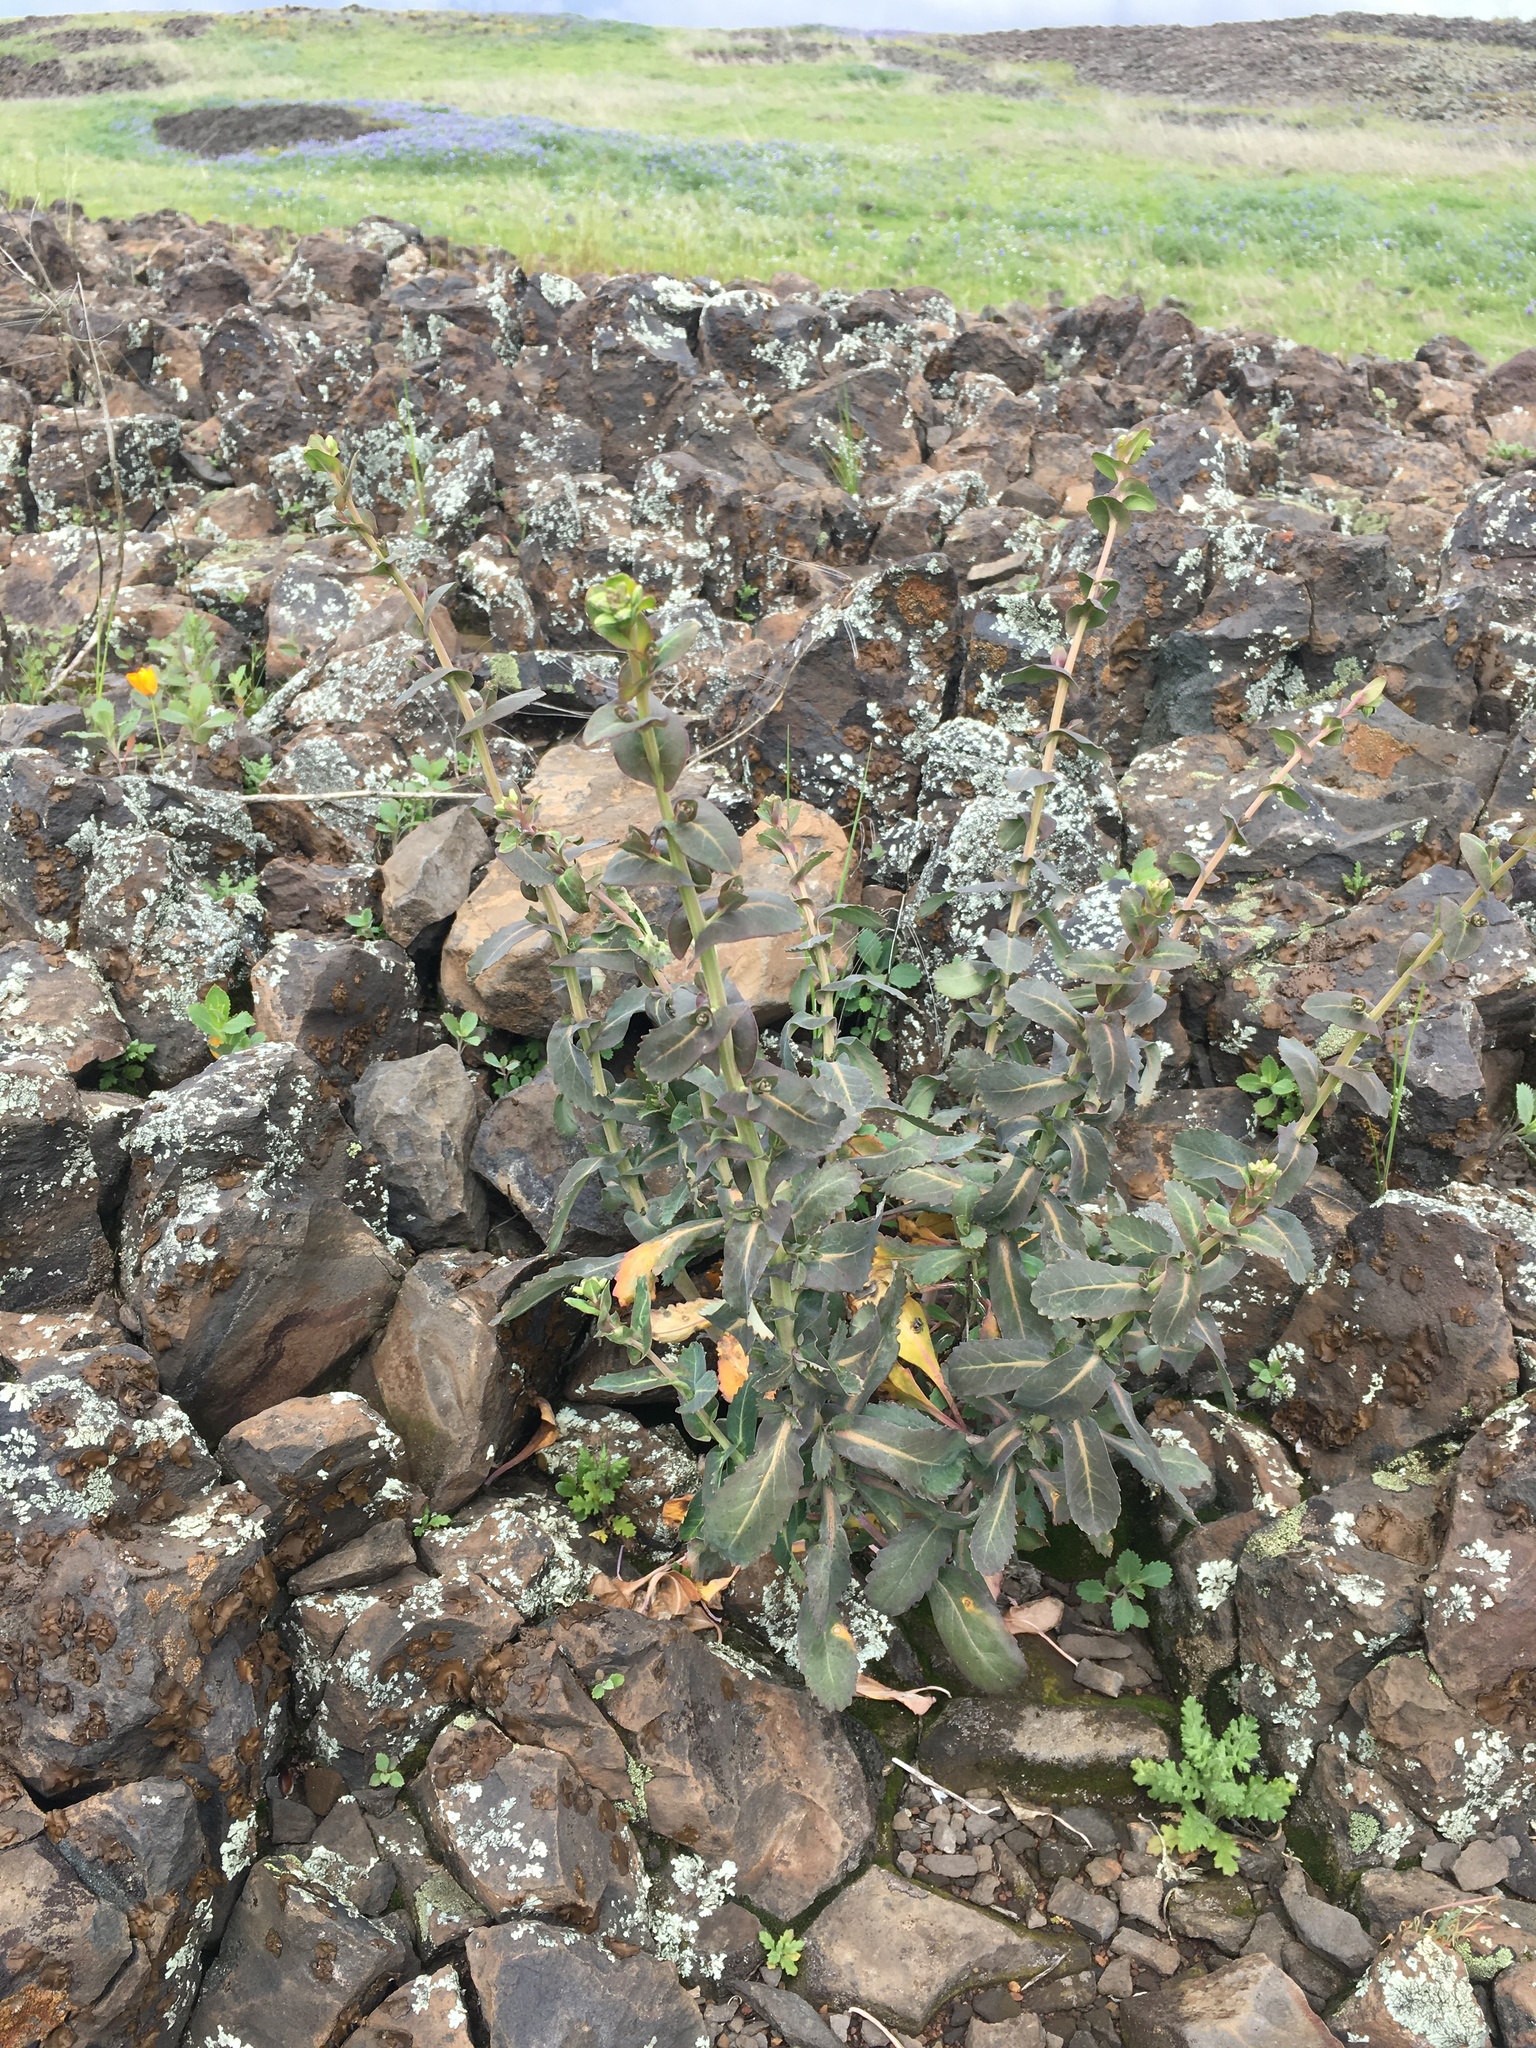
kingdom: Plantae
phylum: Tracheophyta
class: Magnoliopsida
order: Brassicales
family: Brassicaceae
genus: Streptanthus
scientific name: Streptanthus tortuosus
